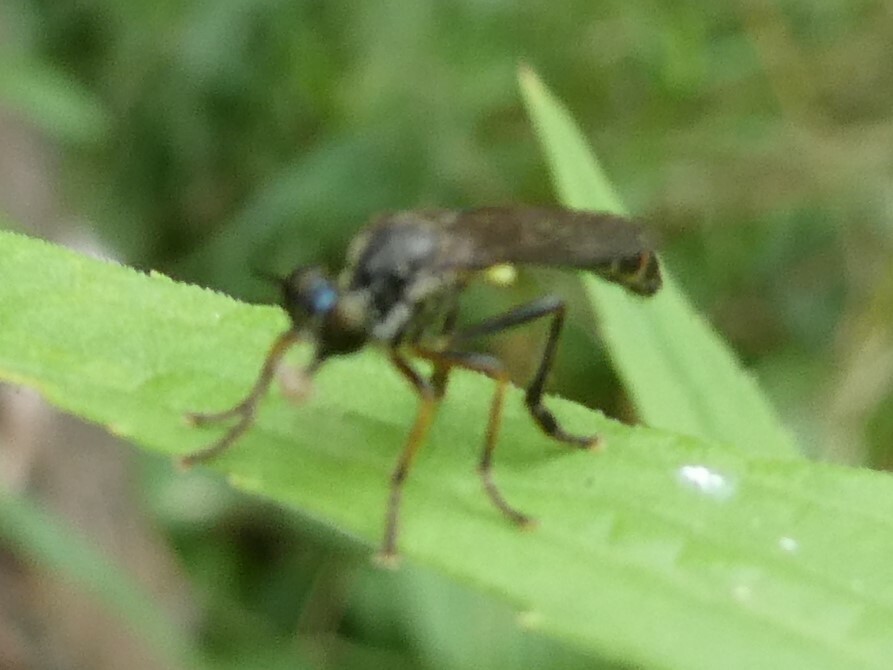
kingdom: Animalia
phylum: Arthropoda
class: Insecta
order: Diptera
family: Asilidae
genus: Dioctria
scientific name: Dioctria hyalipennis
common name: Stripe-legged robberfly
